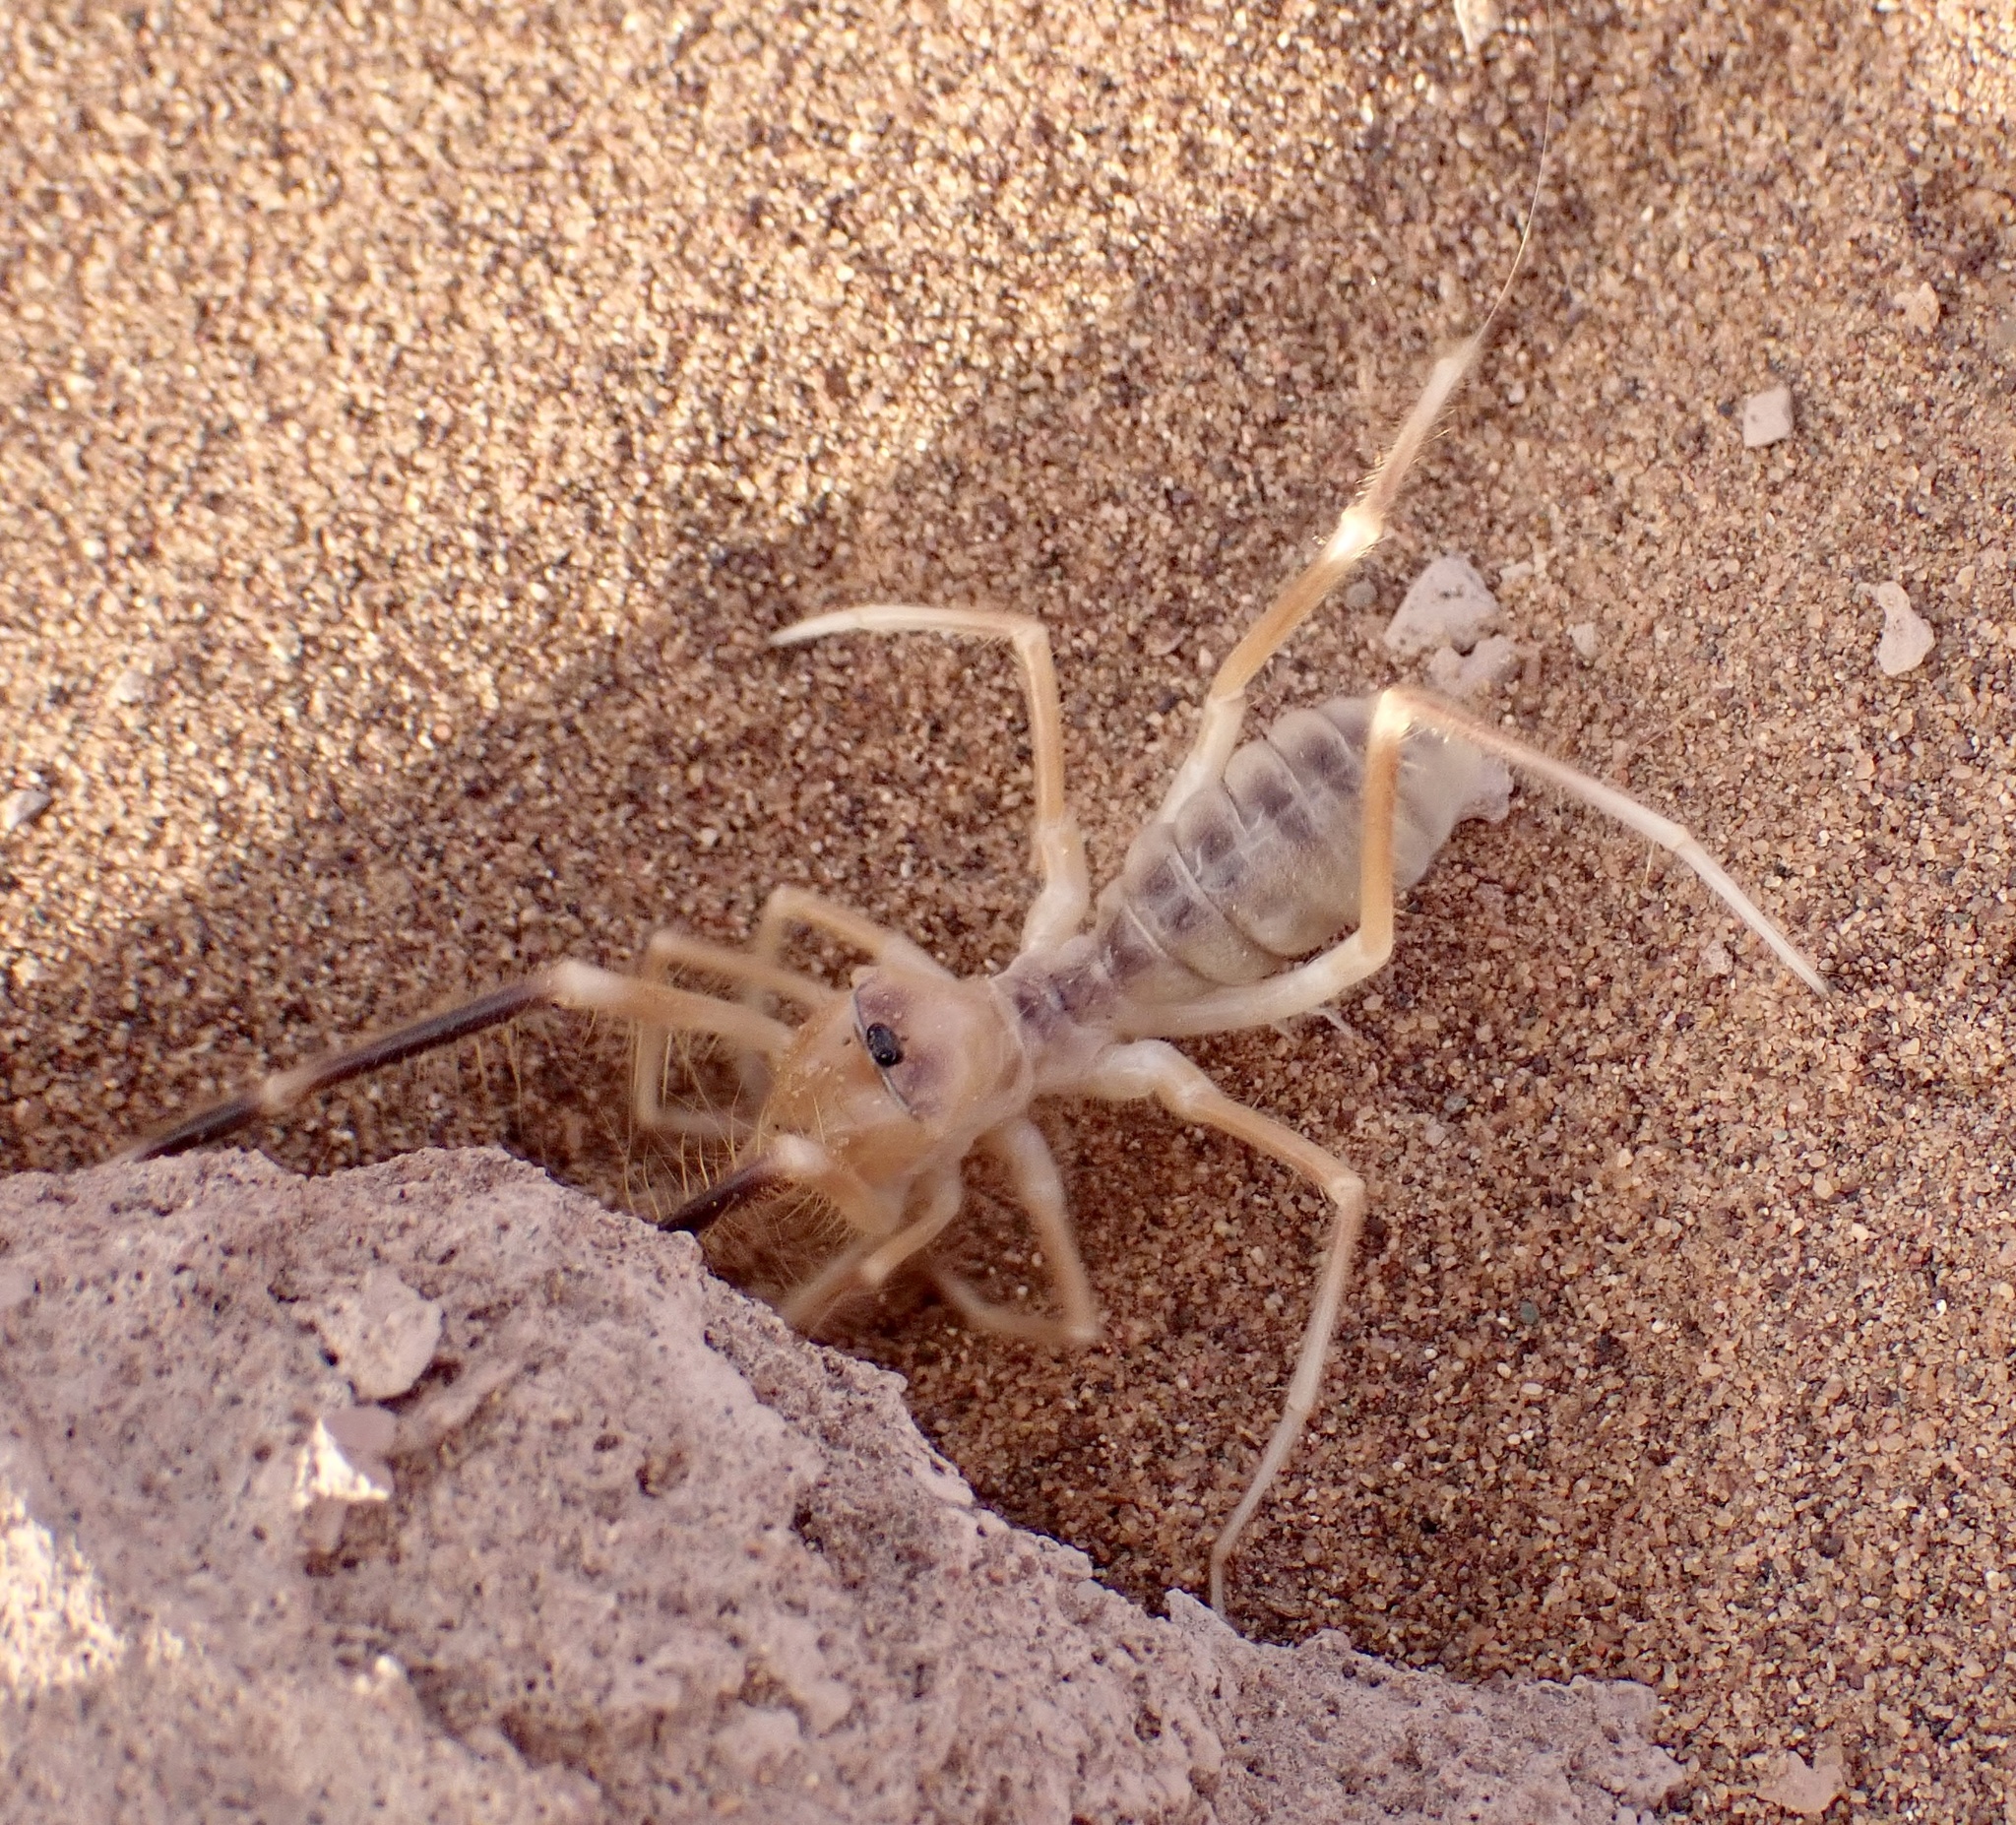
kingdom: Animalia
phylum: Arthropoda
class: Arachnida
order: Solifugae
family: Galeodidae
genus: Galeodes
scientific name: Galeodes olivieri
